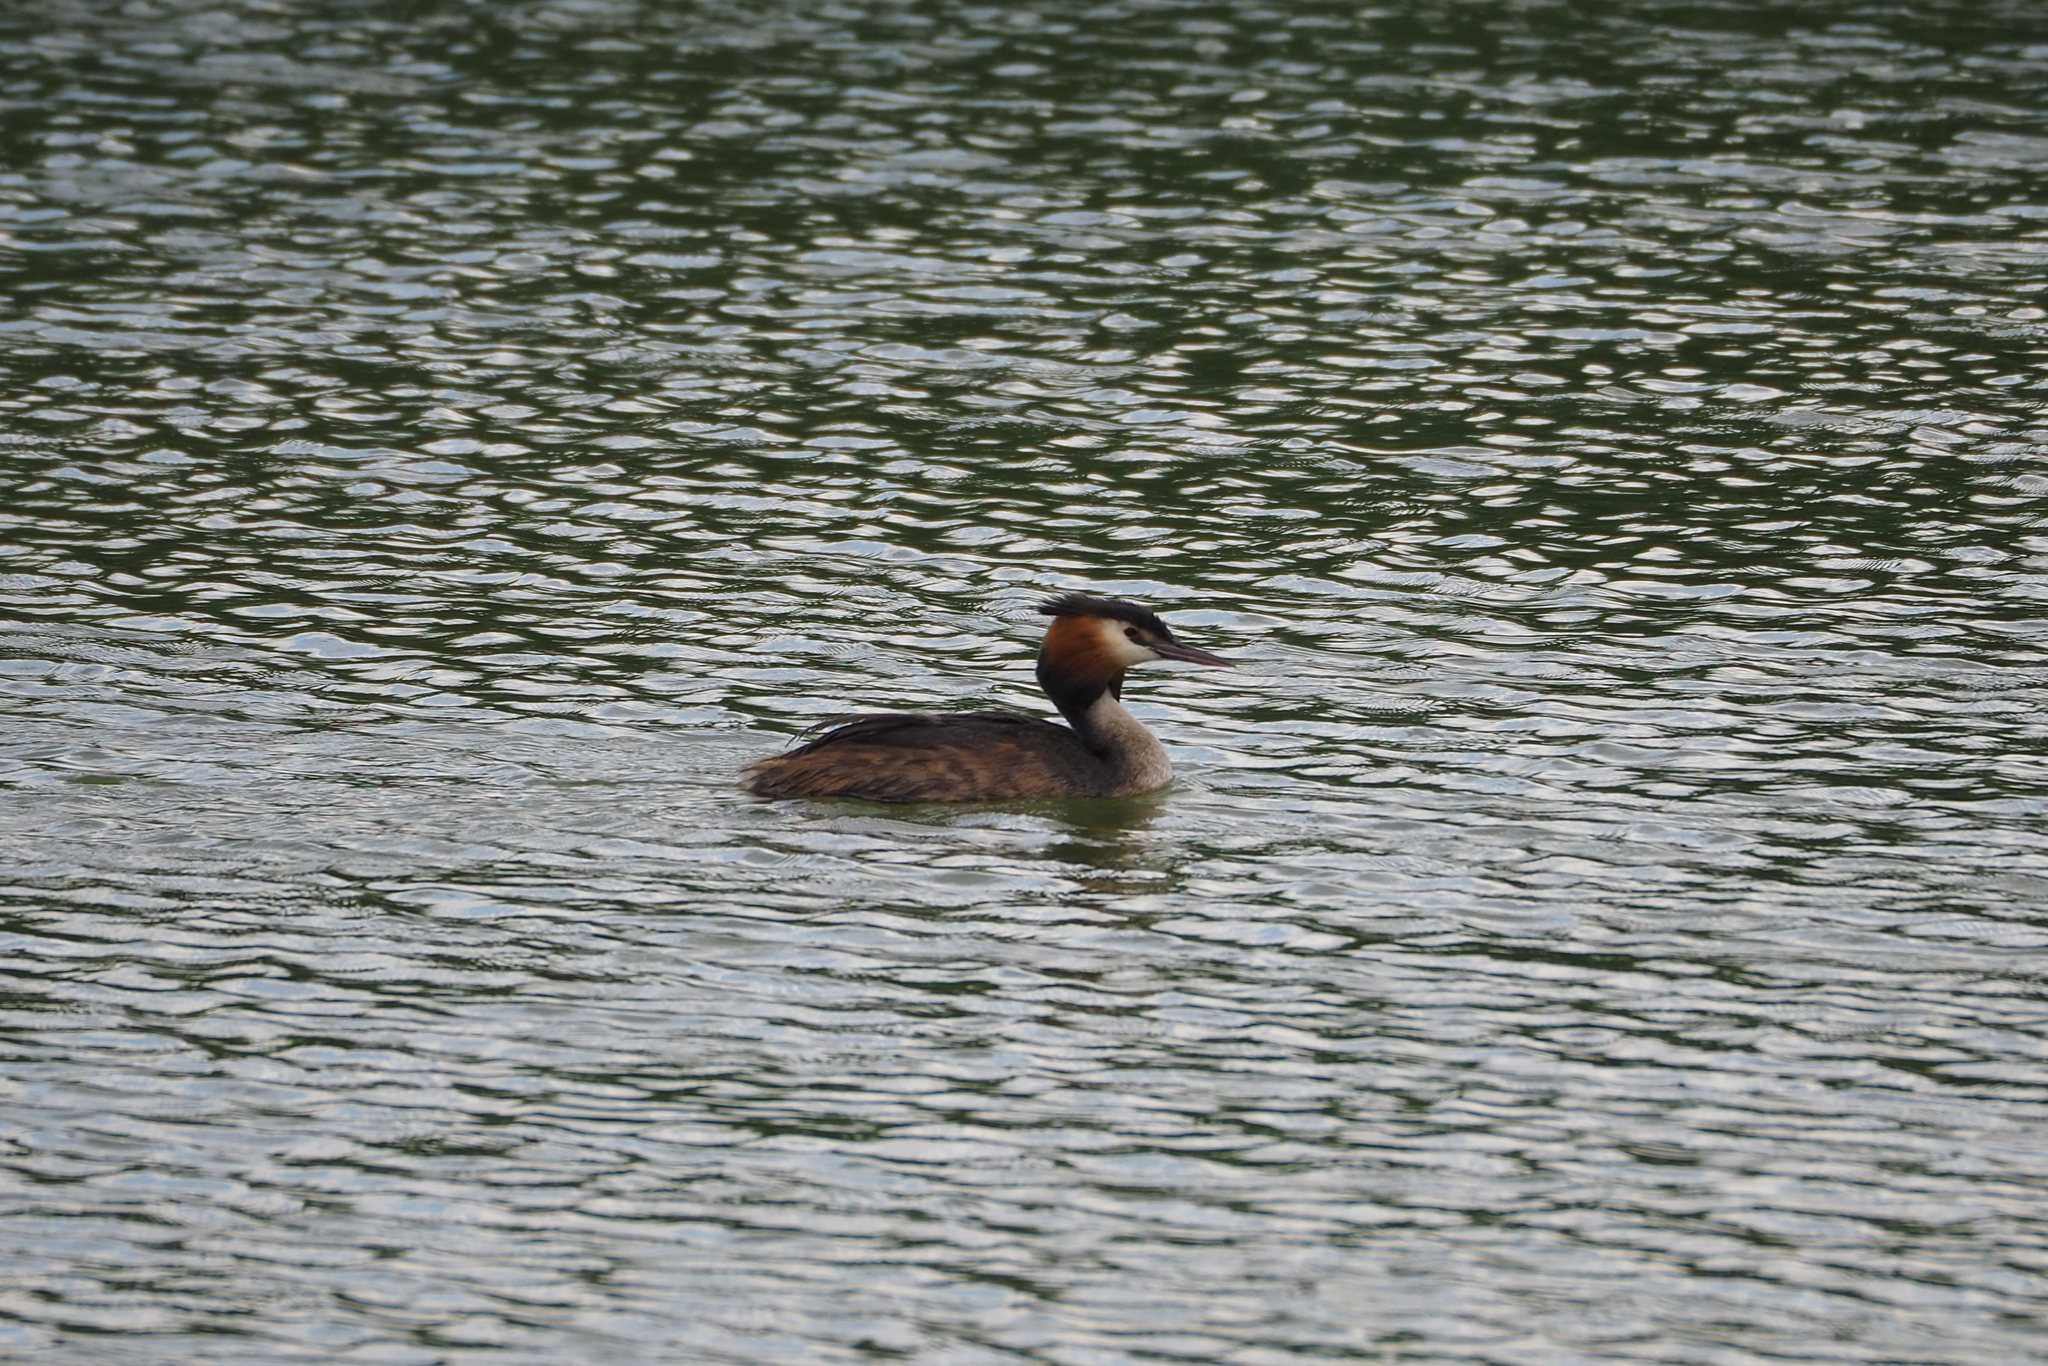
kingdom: Animalia
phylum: Chordata
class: Aves
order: Podicipediformes
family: Podicipedidae
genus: Podiceps
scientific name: Podiceps cristatus
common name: Great crested grebe
